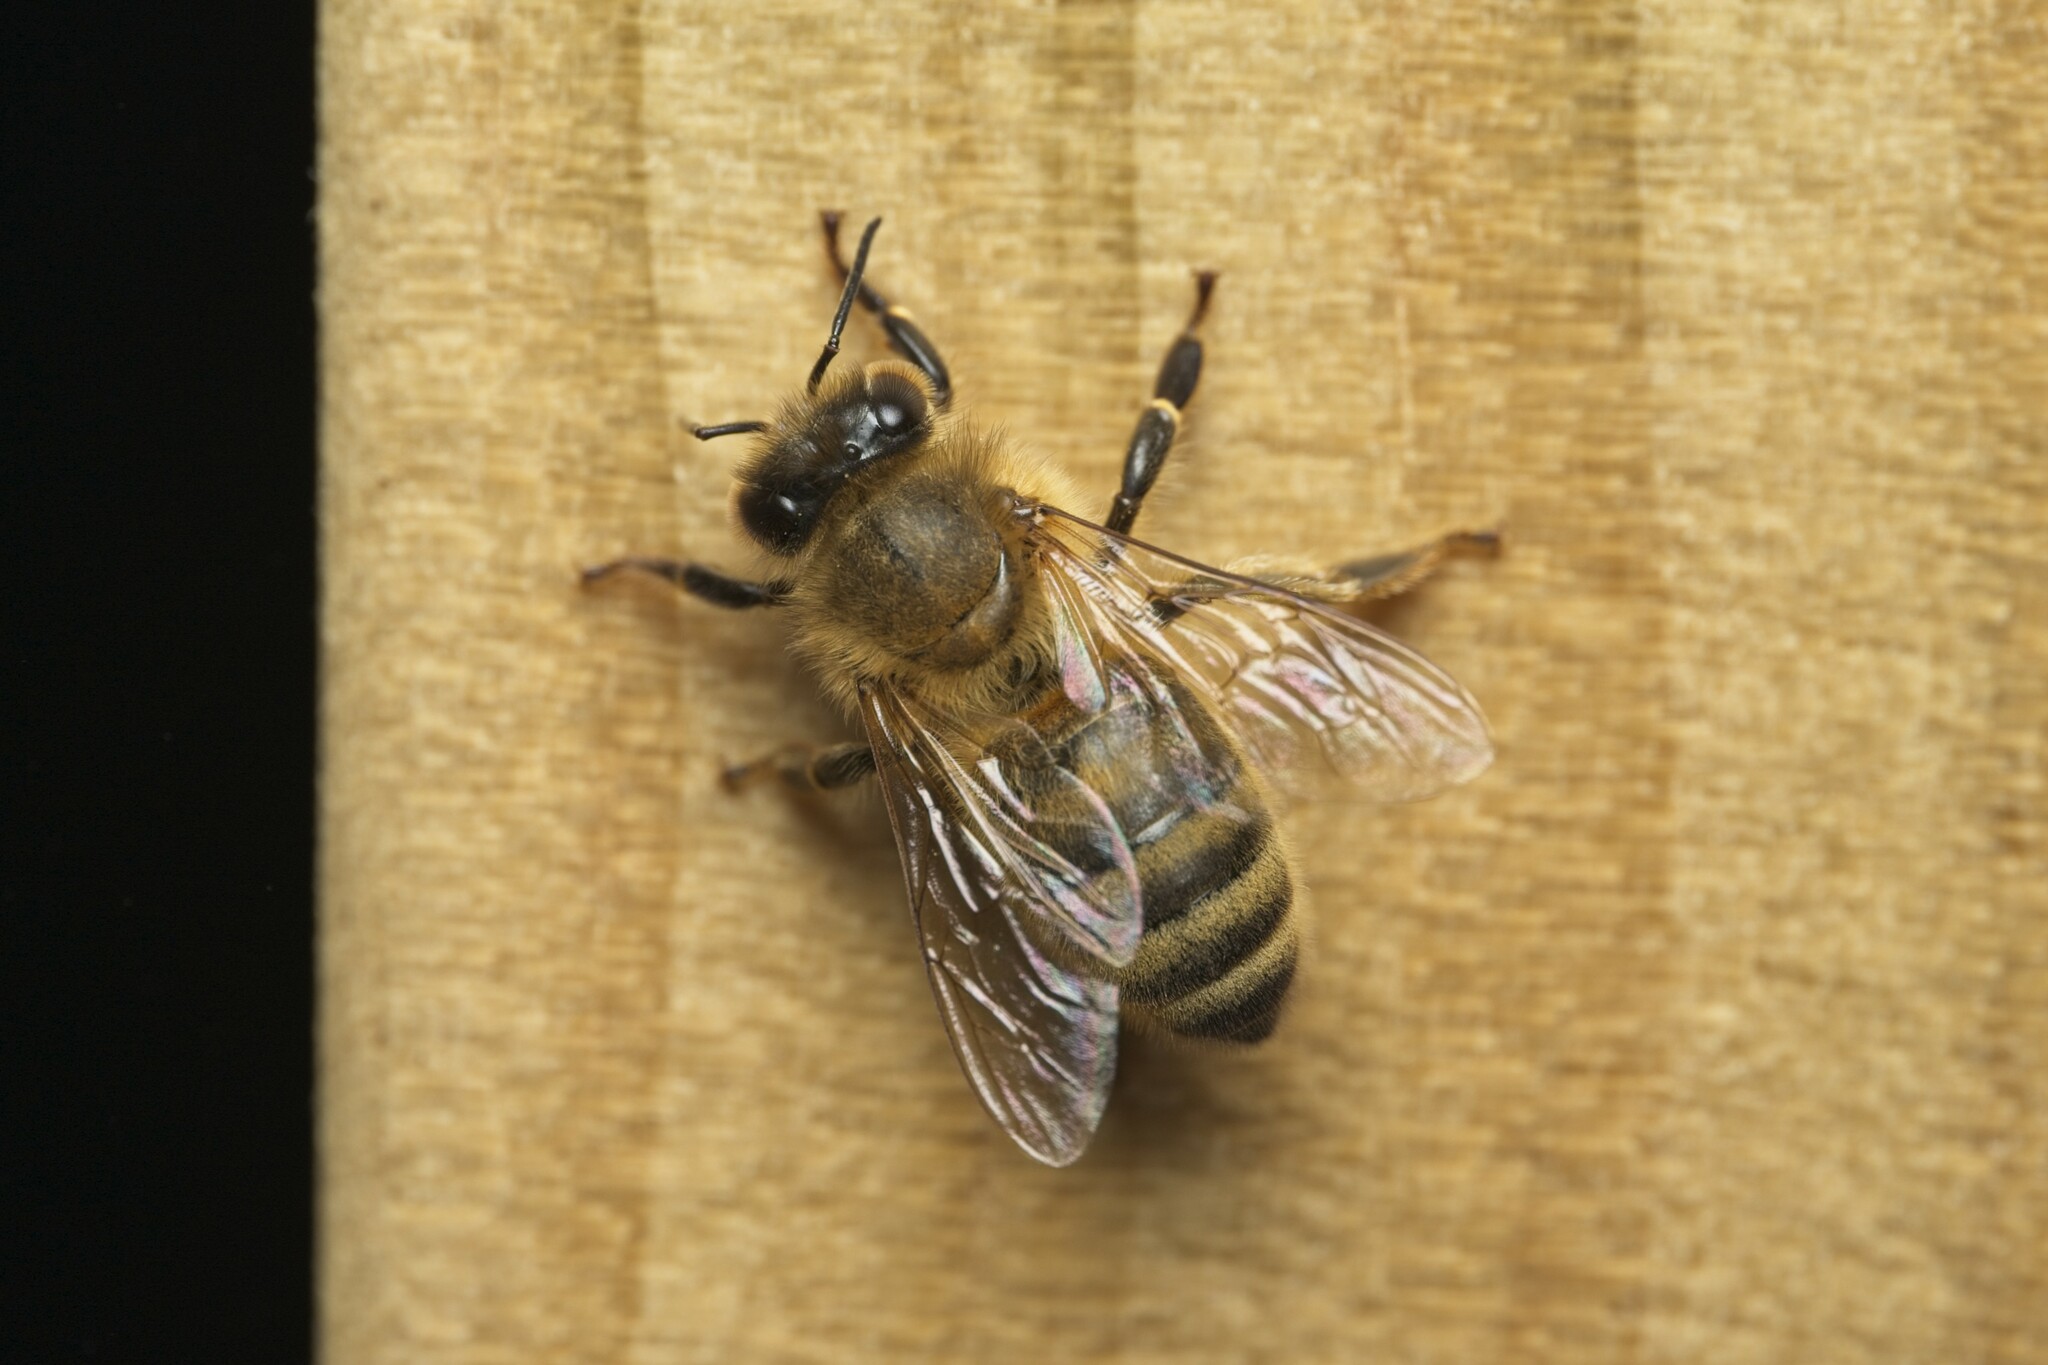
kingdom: Animalia
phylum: Arthropoda
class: Insecta
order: Hymenoptera
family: Apidae
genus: Apis
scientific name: Apis mellifera
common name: Honey bee
